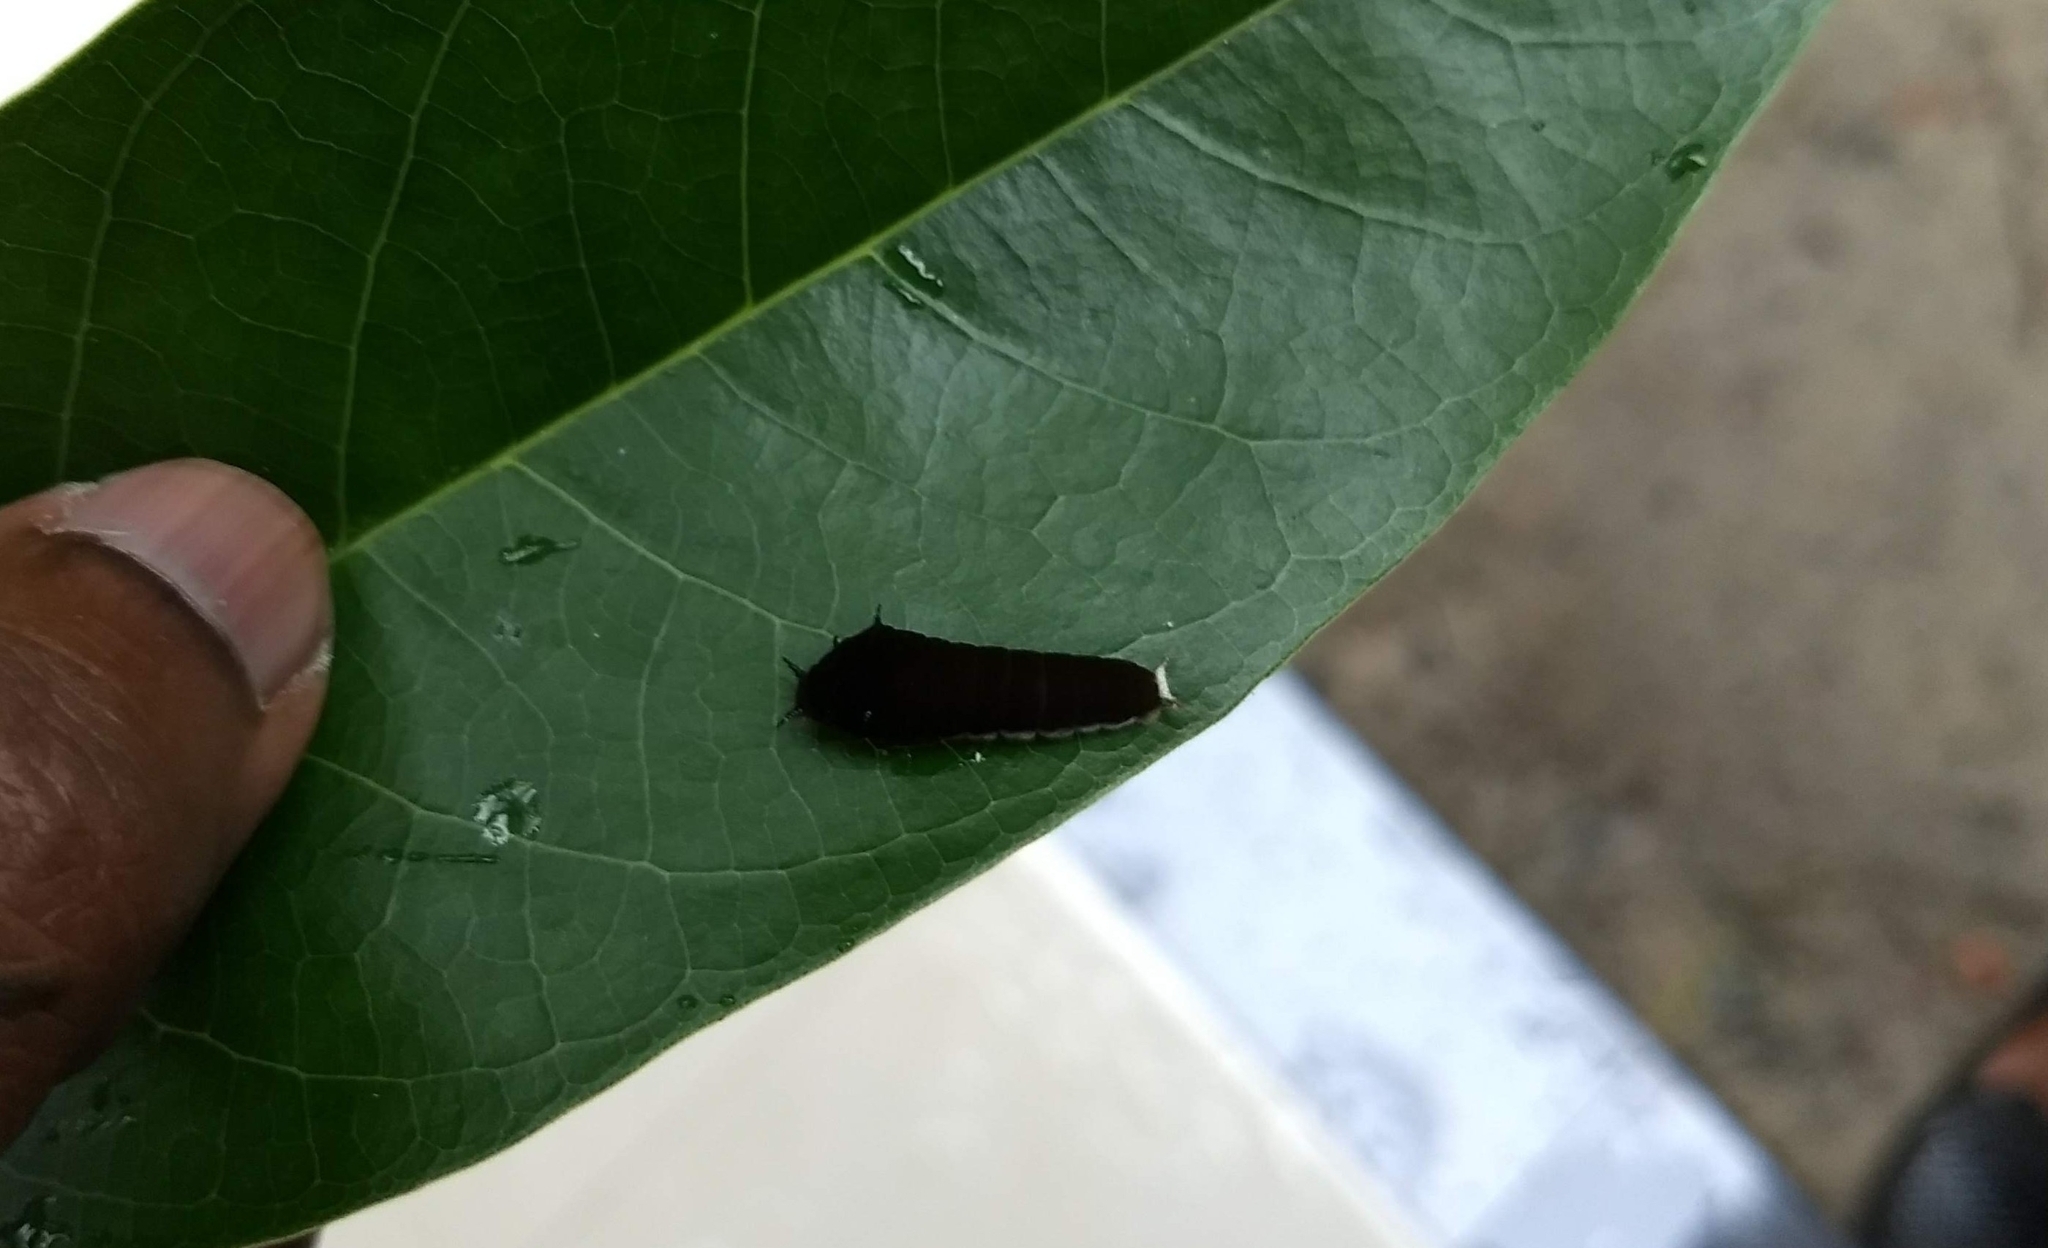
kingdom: Animalia
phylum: Arthropoda
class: Insecta
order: Lepidoptera
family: Papilionidae
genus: Graphium
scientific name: Graphium doson
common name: Common jay
